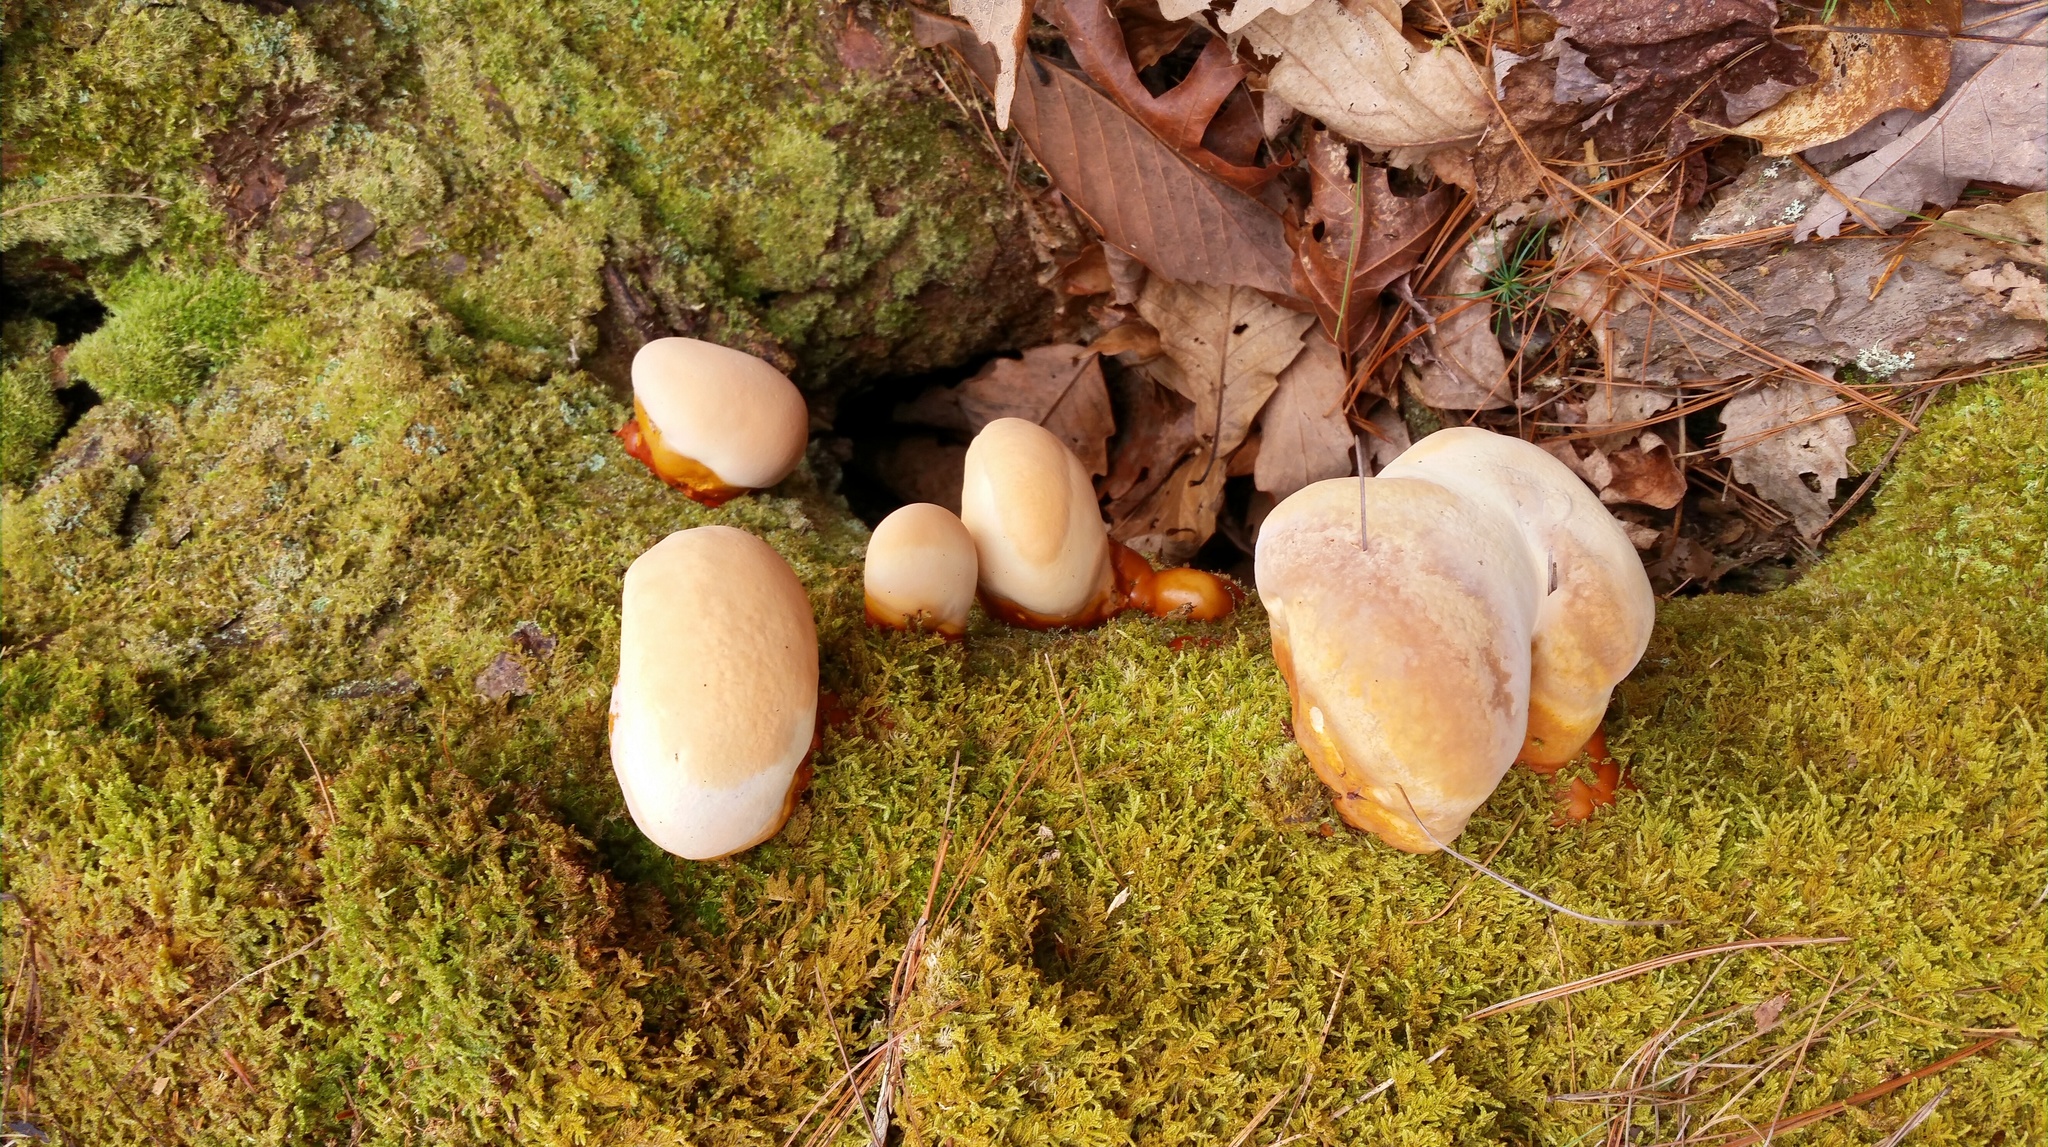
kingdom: Fungi
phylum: Basidiomycota
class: Agaricomycetes
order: Polyporales
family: Polyporaceae
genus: Ganoderma
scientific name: Ganoderma tsugae
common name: Hemlock varnish shelf
